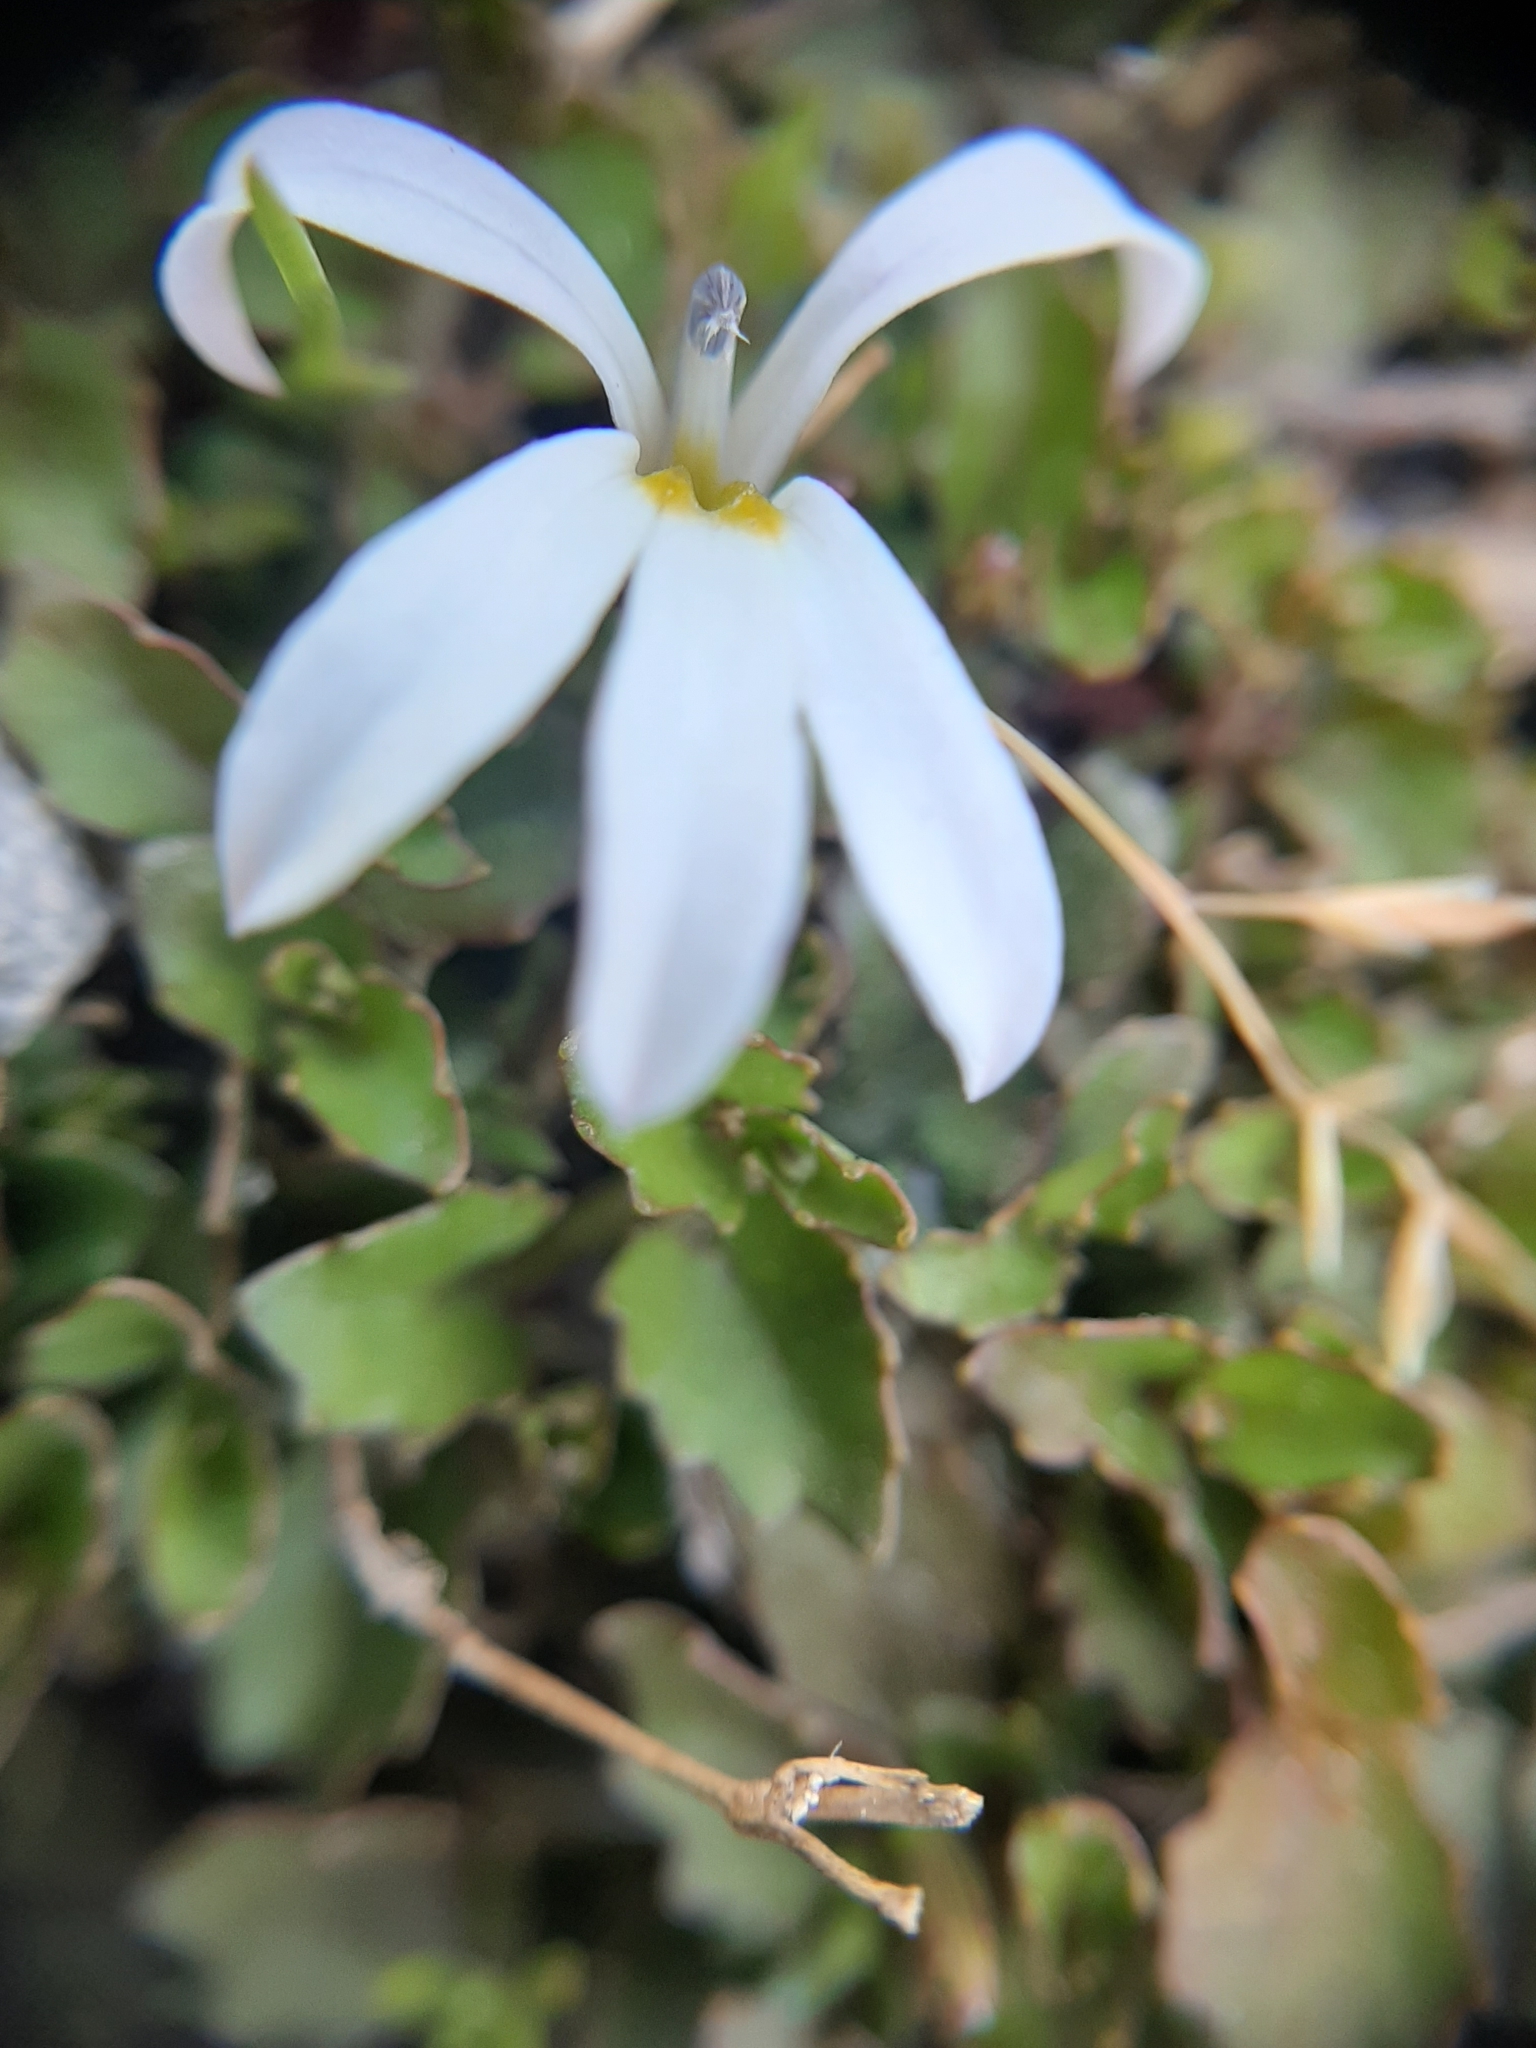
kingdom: Plantae
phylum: Tracheophyta
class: Magnoliopsida
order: Asterales
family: Campanulaceae
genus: Lobelia
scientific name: Lobelia angulata
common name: Lawn lobelia
